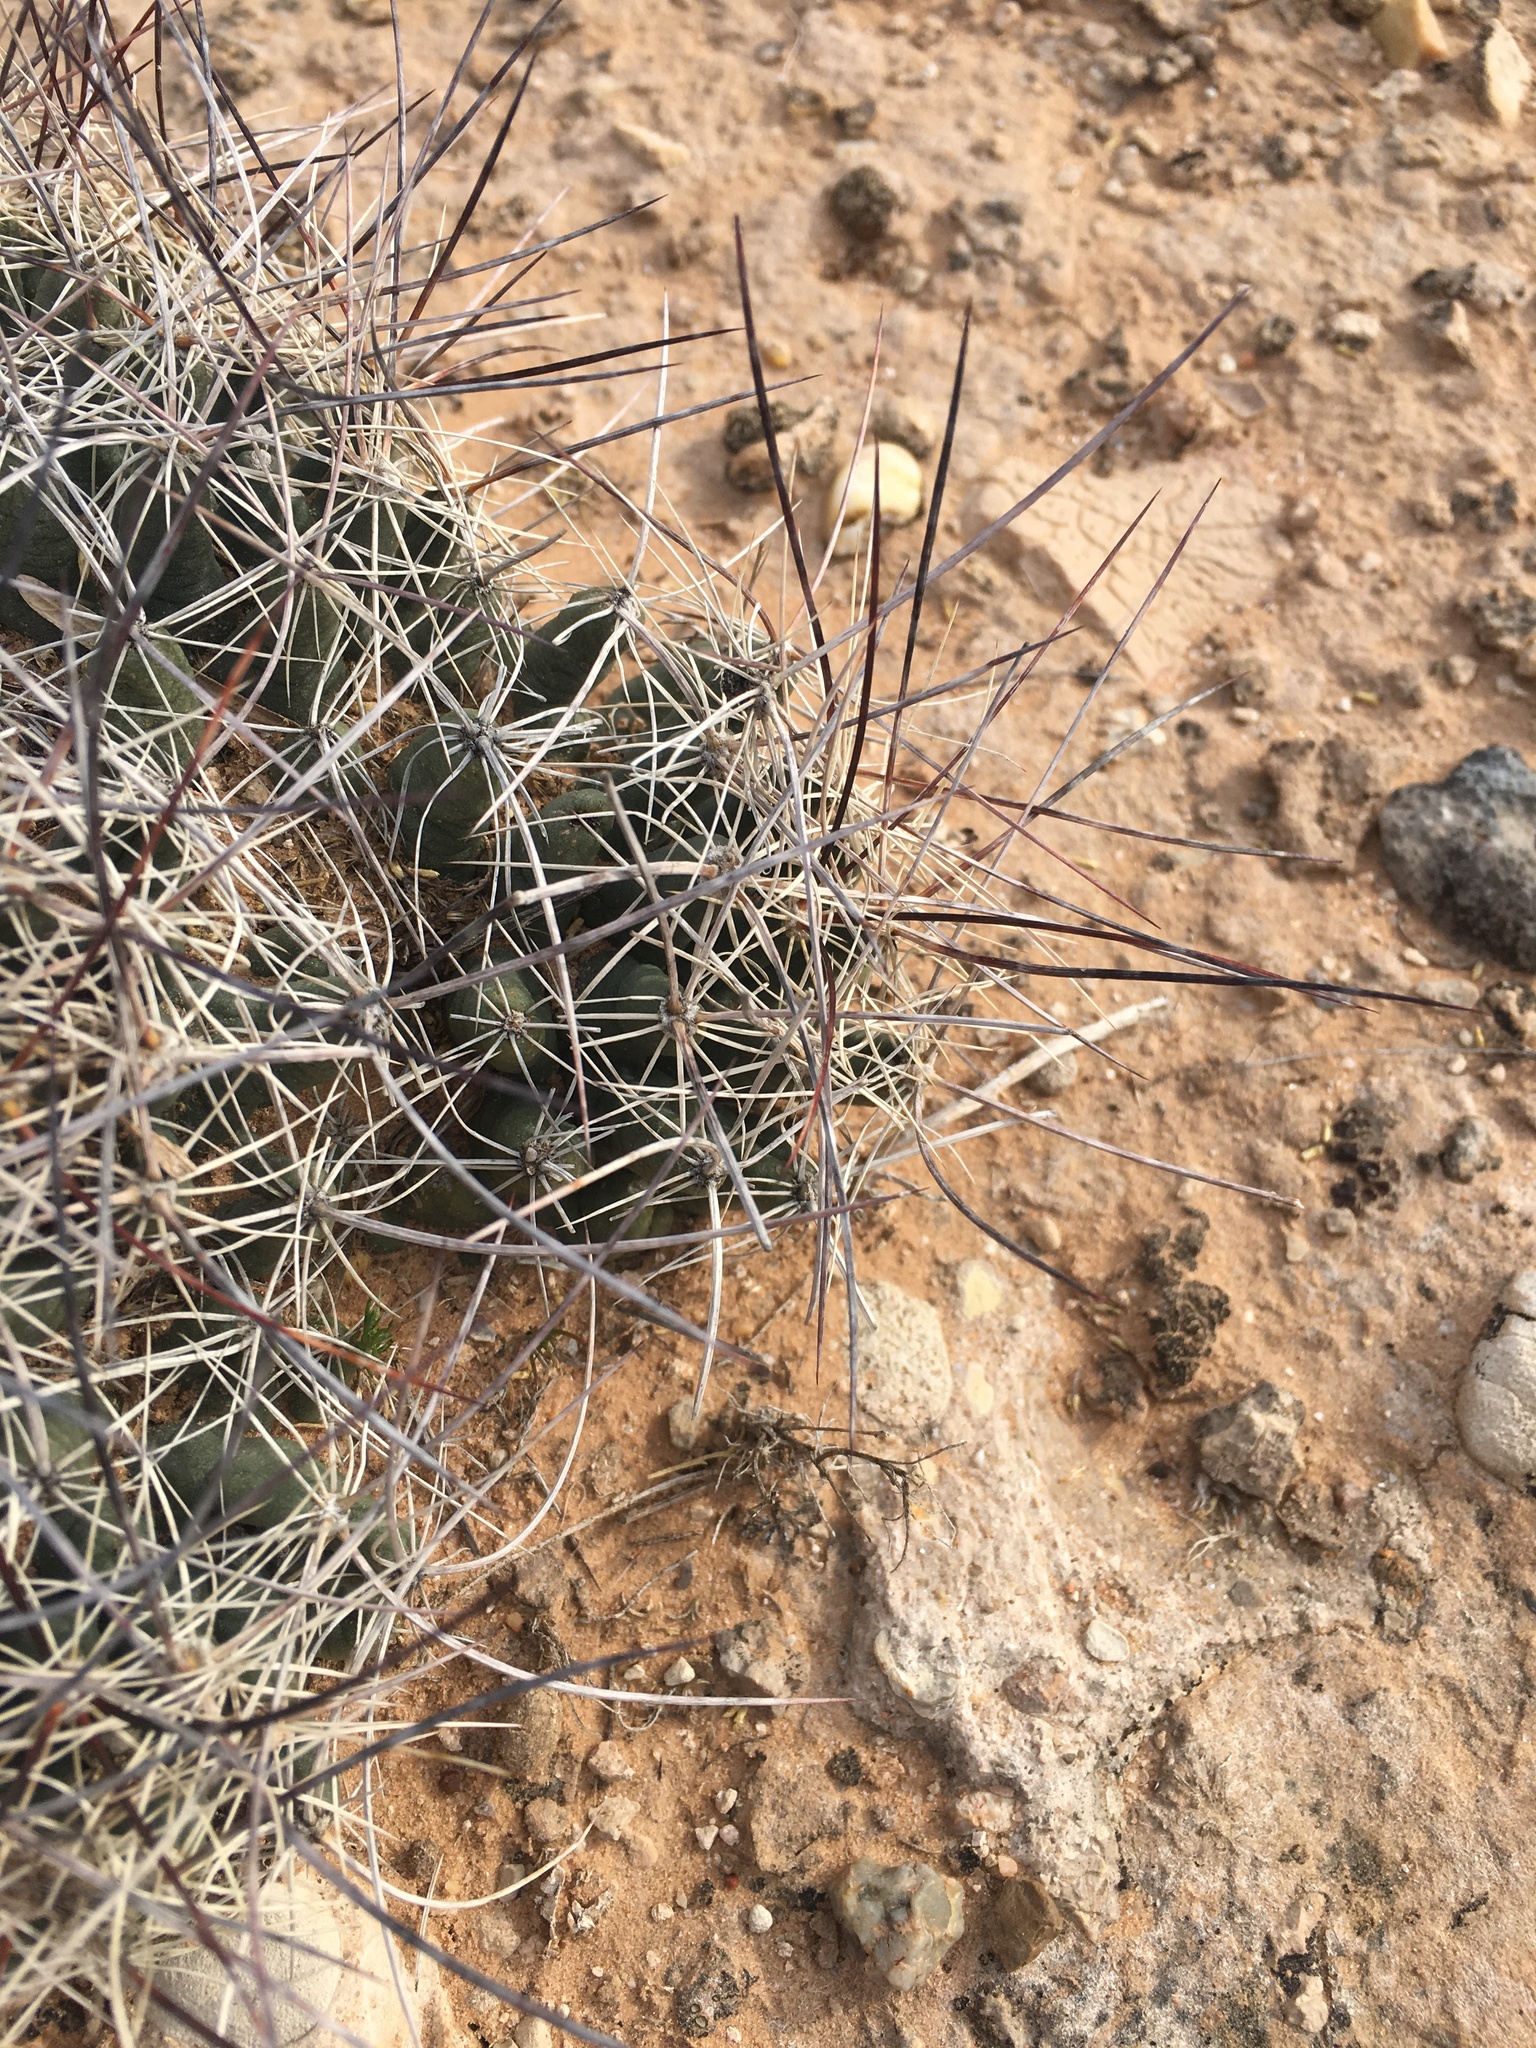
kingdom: Plantae
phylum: Tracheophyta
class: Magnoliopsida
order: Caryophyllales
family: Cactaceae
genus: Coryphantha
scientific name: Coryphantha macromeris
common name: Nipple beehive cactus
